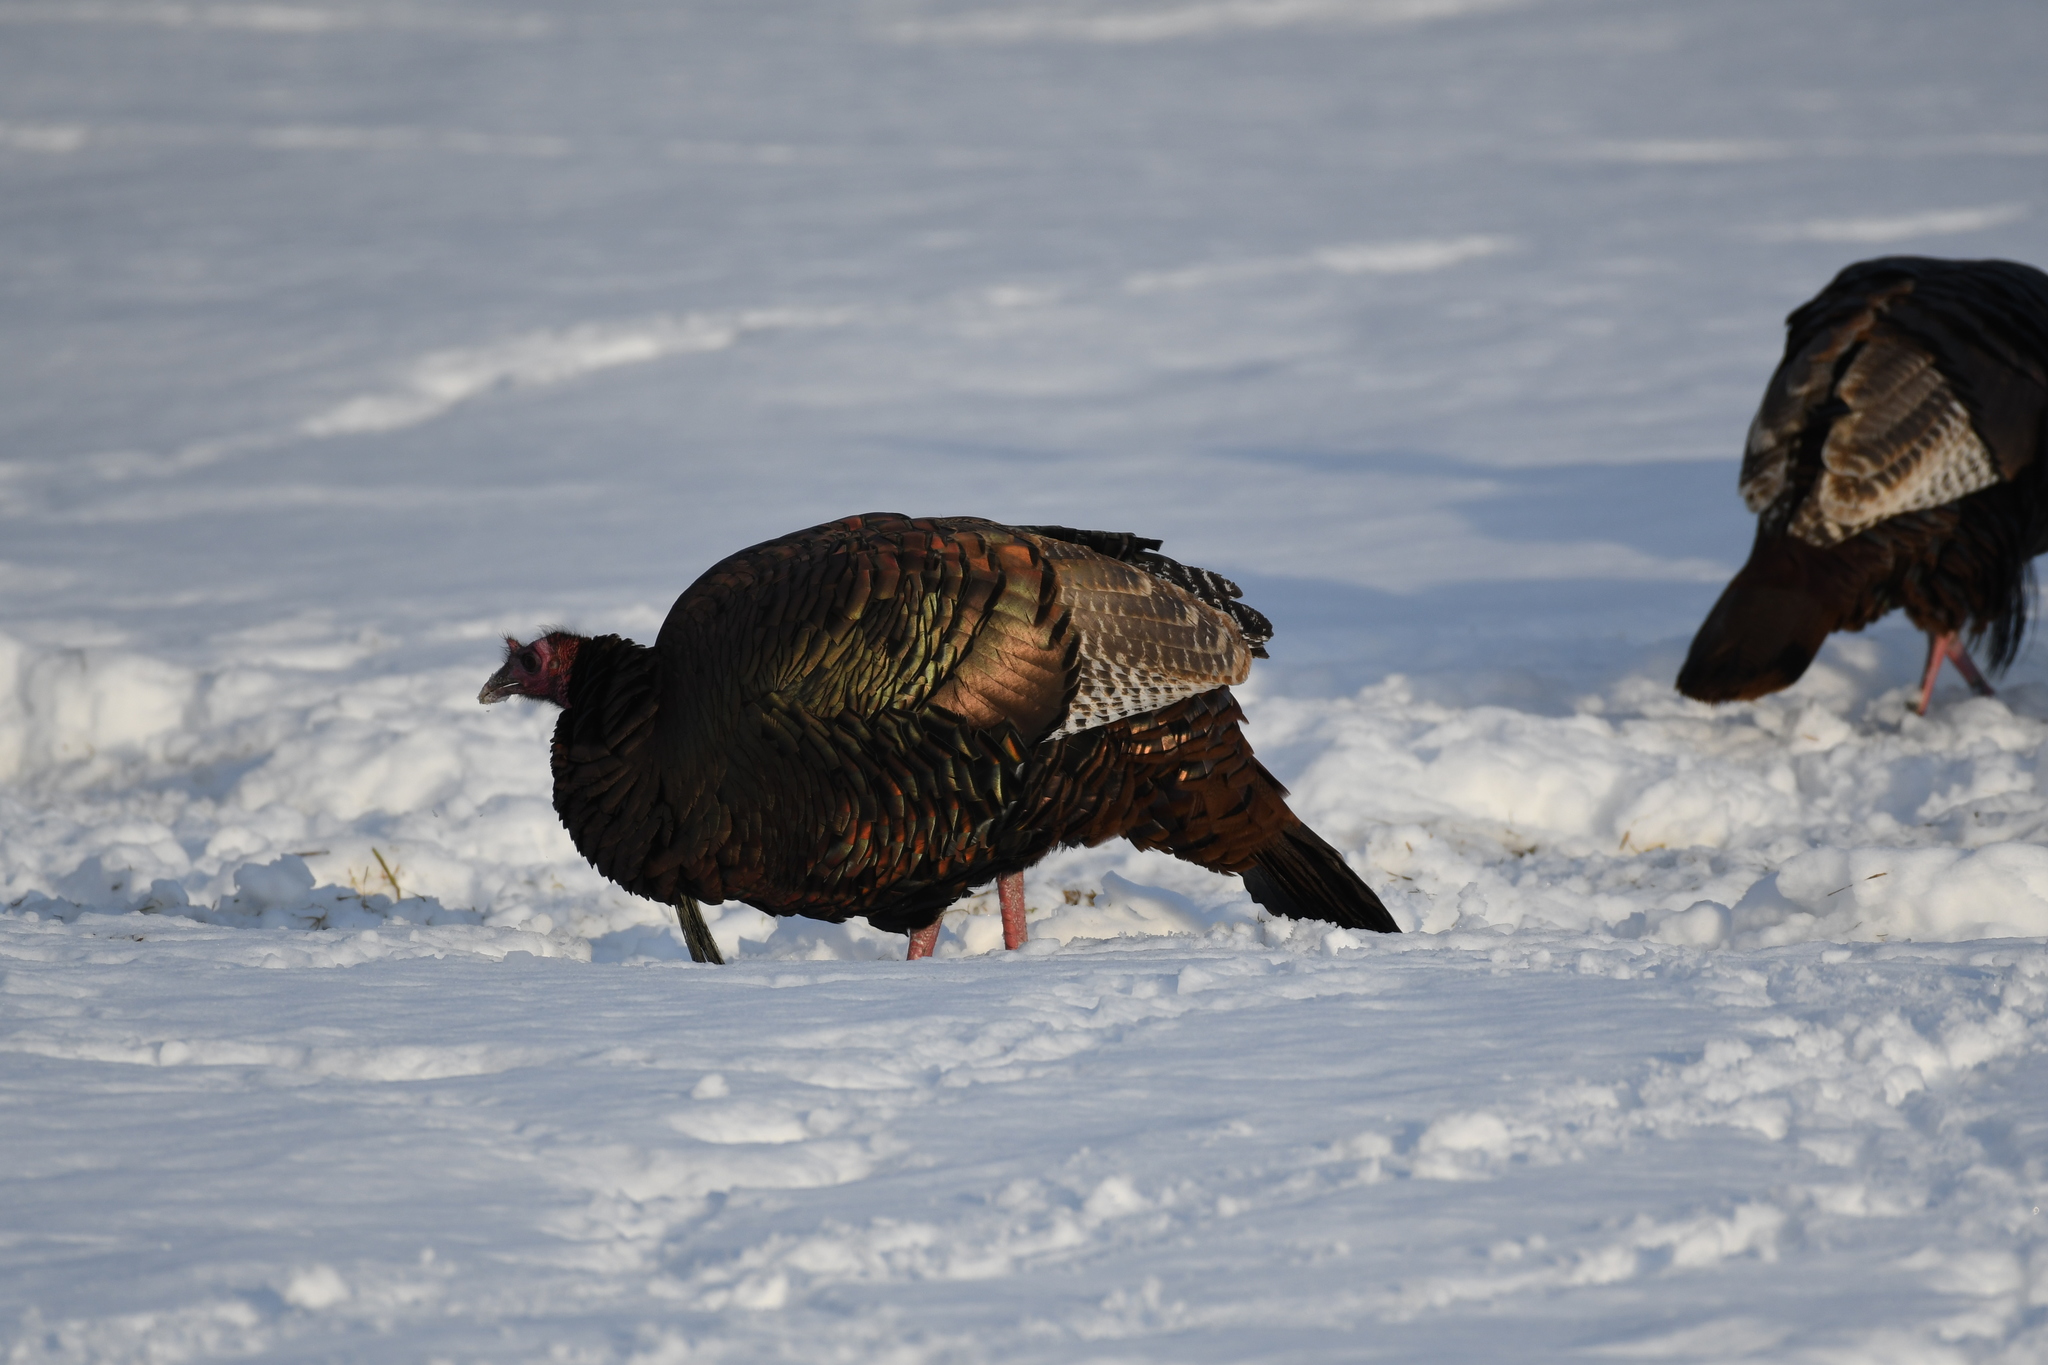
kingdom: Animalia
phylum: Chordata
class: Aves
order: Galliformes
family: Phasianidae
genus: Meleagris
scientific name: Meleagris gallopavo
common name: Wild turkey
